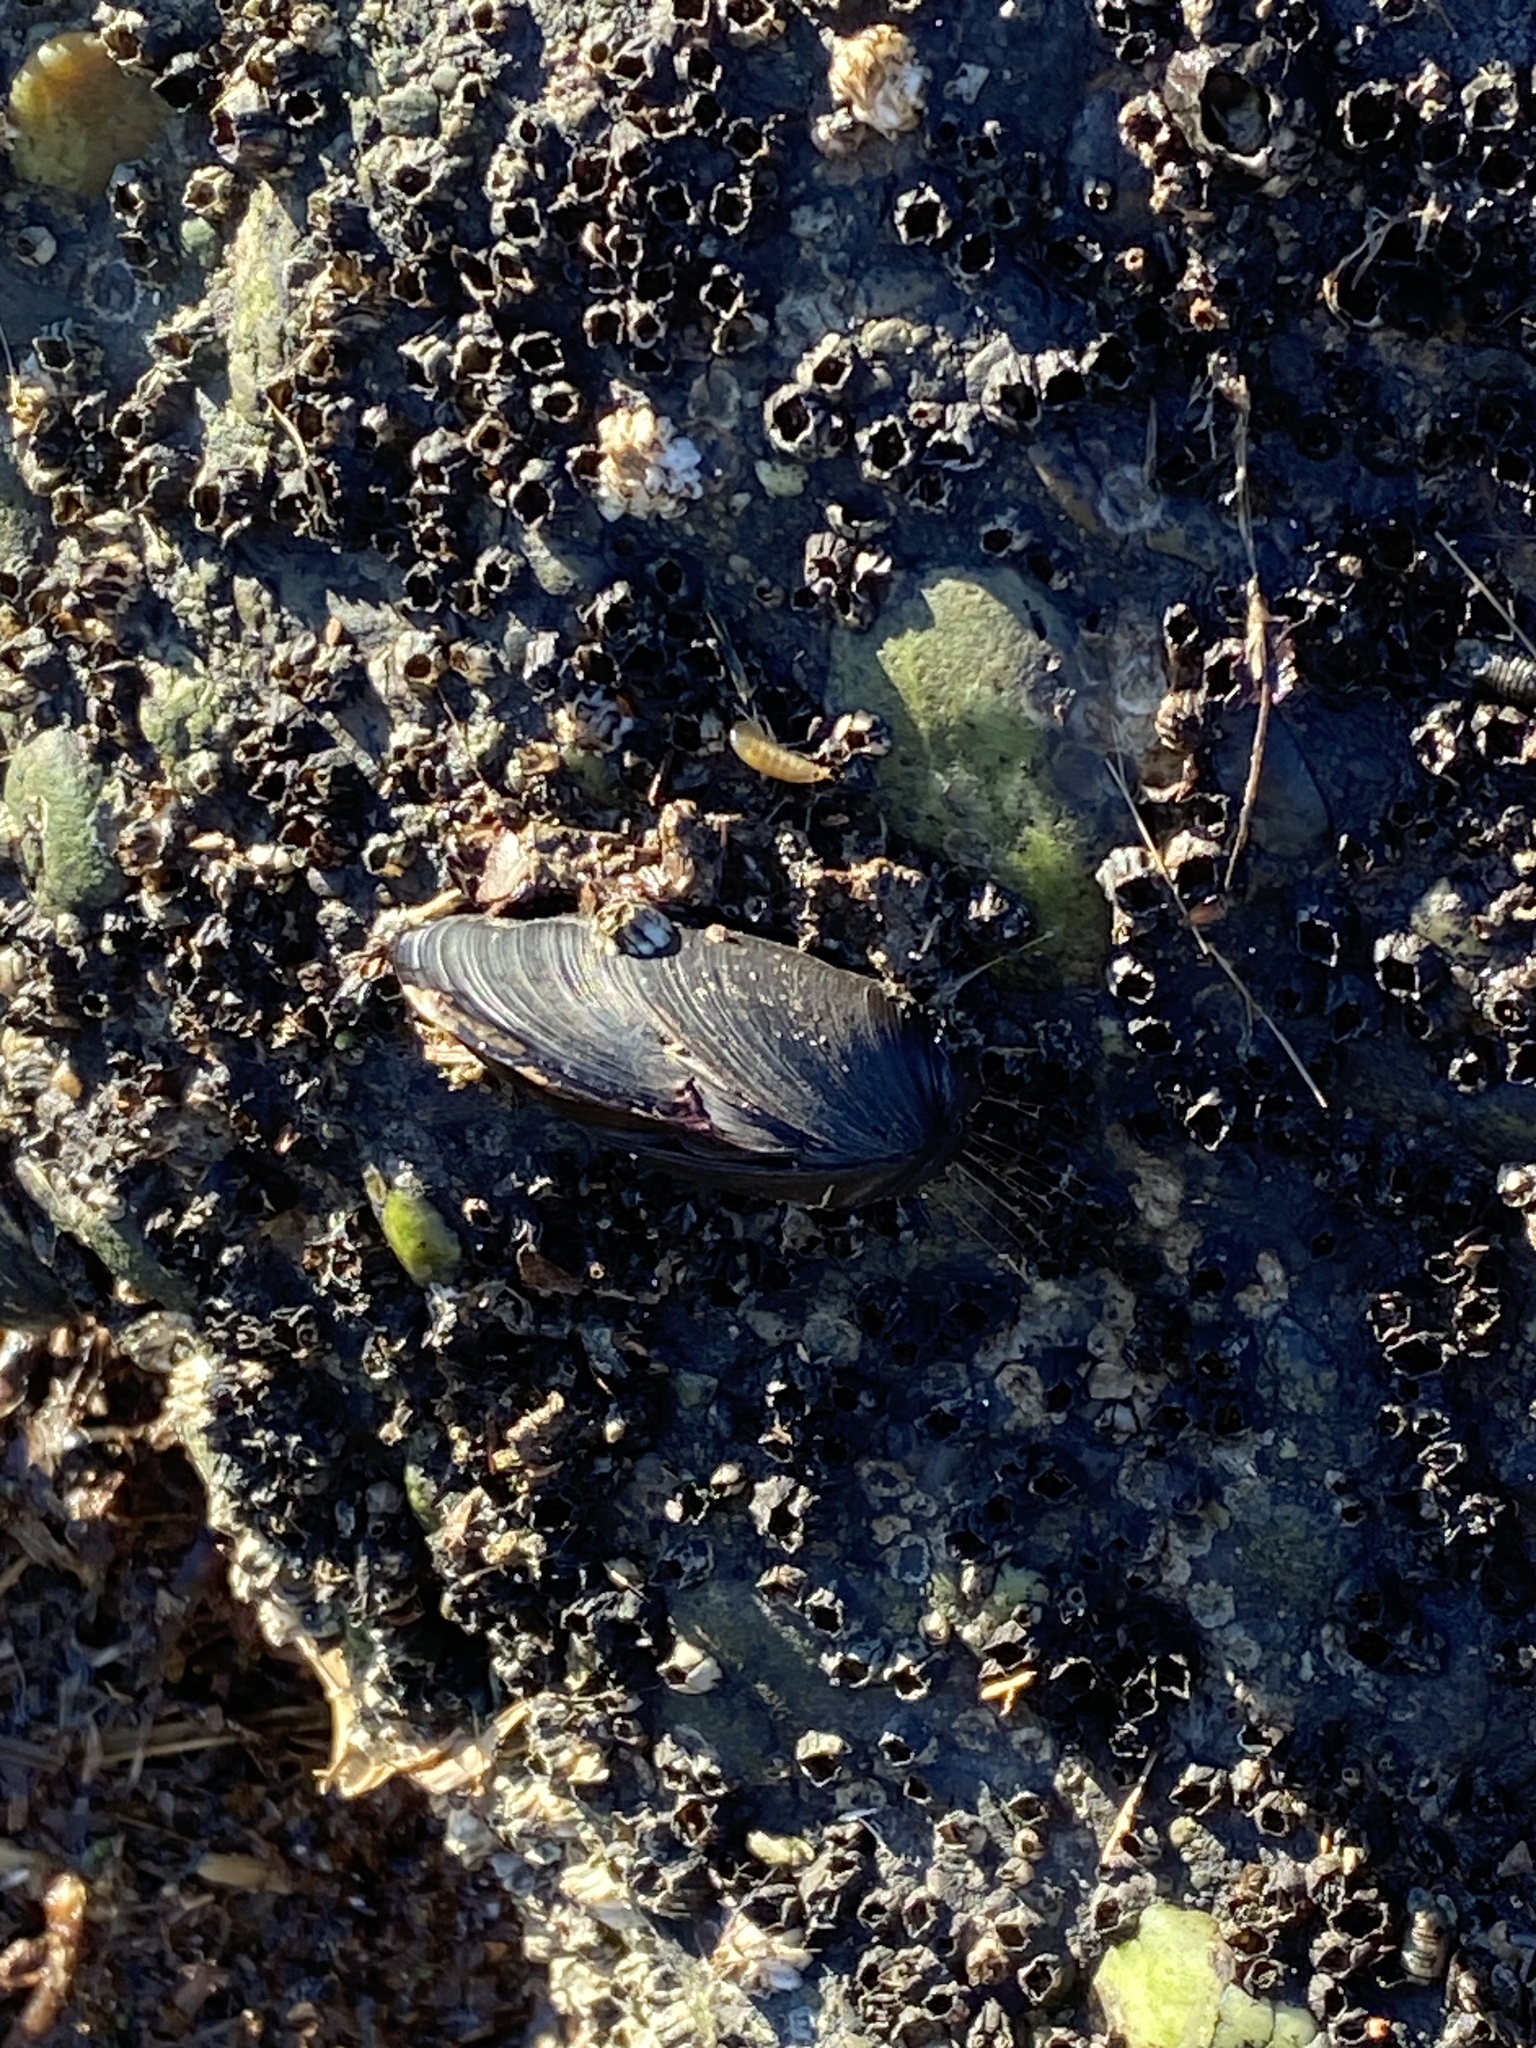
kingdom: Animalia
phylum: Mollusca
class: Bivalvia
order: Mytilida
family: Mytilidae
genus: Mytilus
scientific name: Mytilus
